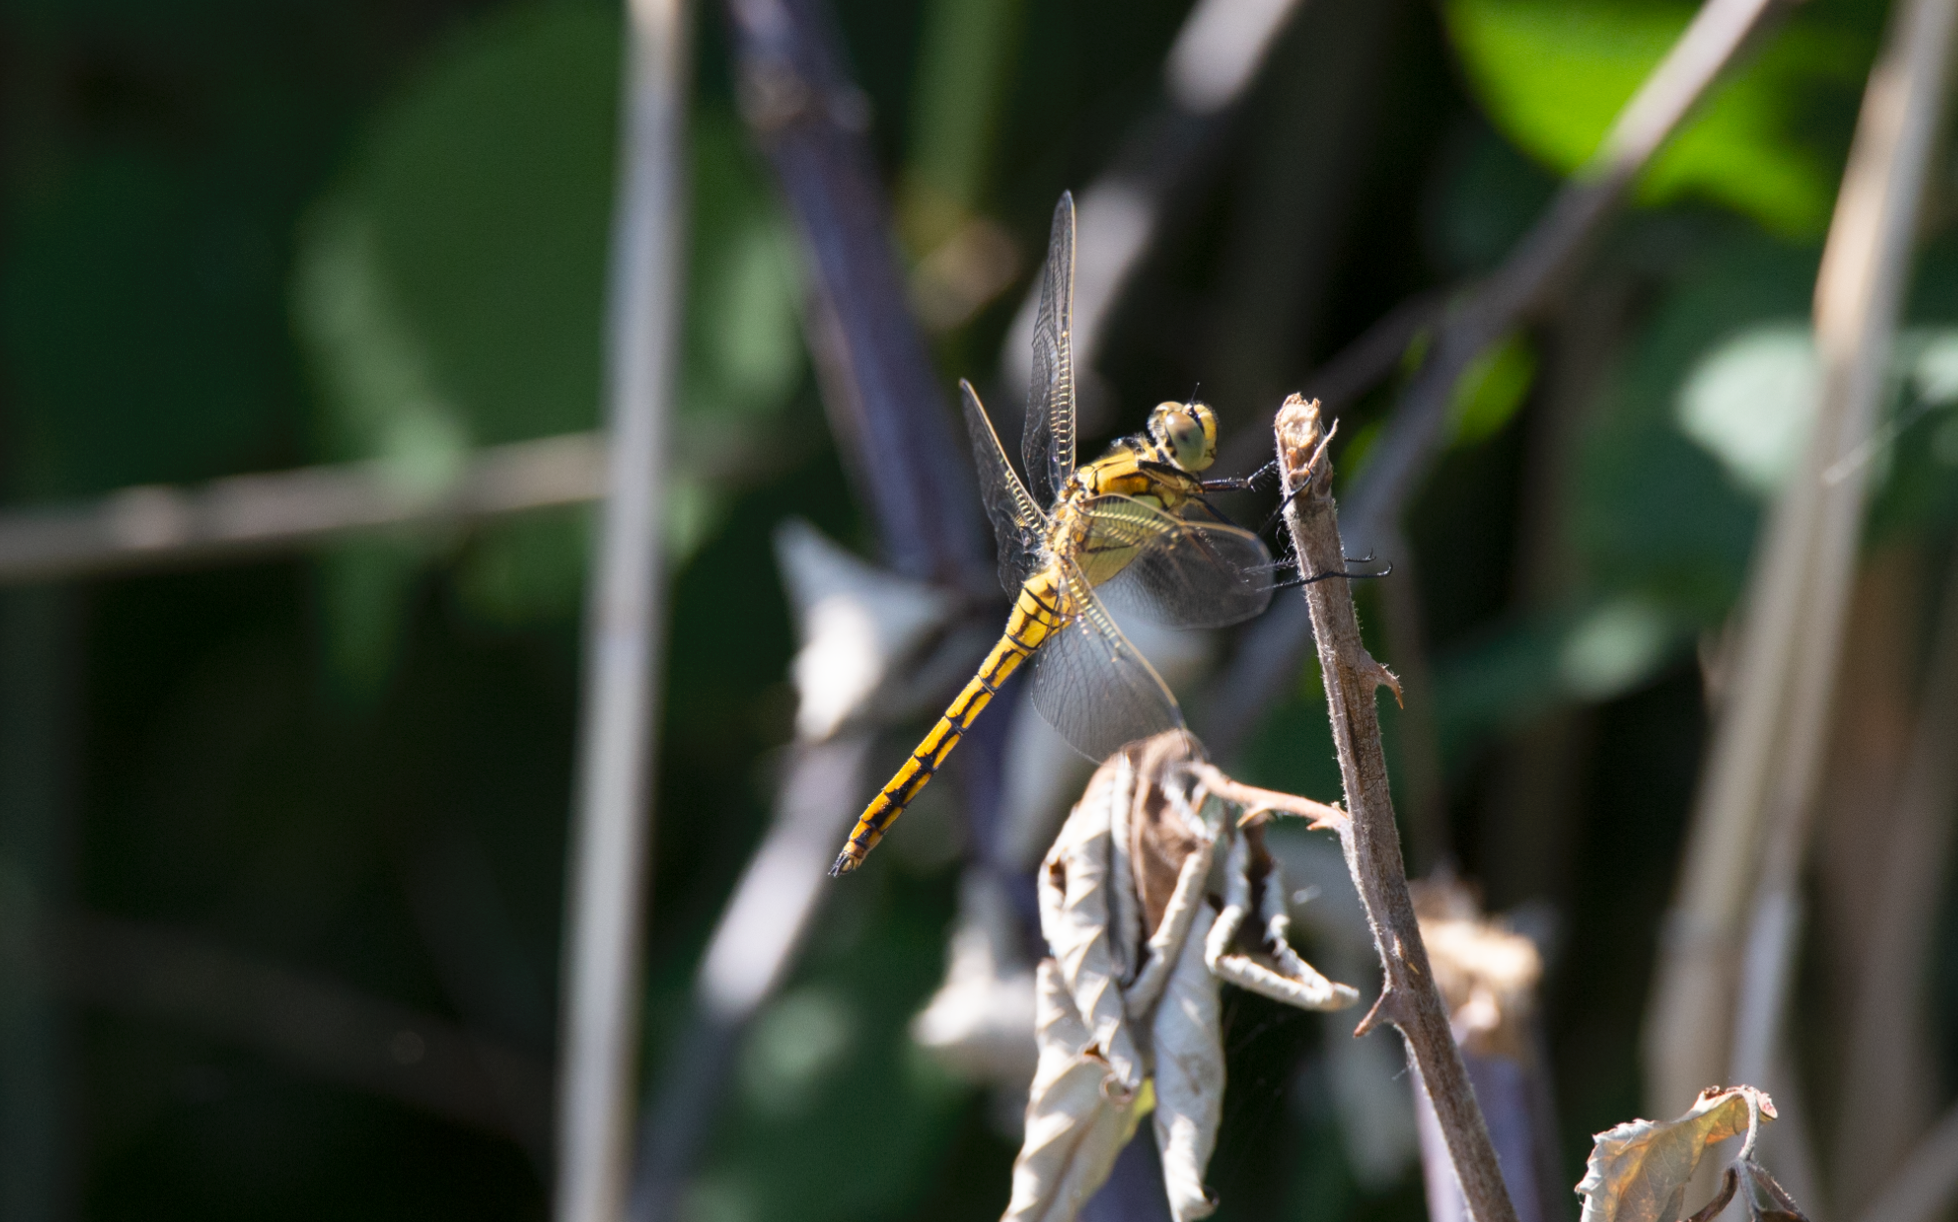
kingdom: Animalia
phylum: Arthropoda
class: Insecta
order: Odonata
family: Libellulidae
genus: Orthetrum
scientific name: Orthetrum cancellatum
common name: Black-tailed skimmer
